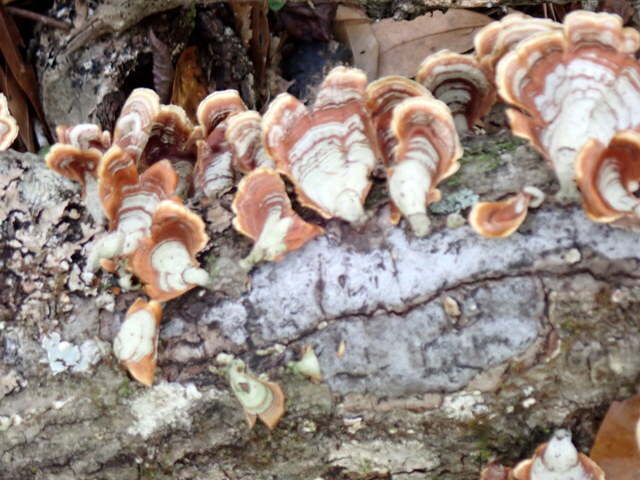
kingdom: Fungi
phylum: Basidiomycota
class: Agaricomycetes
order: Russulales
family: Stereaceae
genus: Stereum
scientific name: Stereum lobatum
